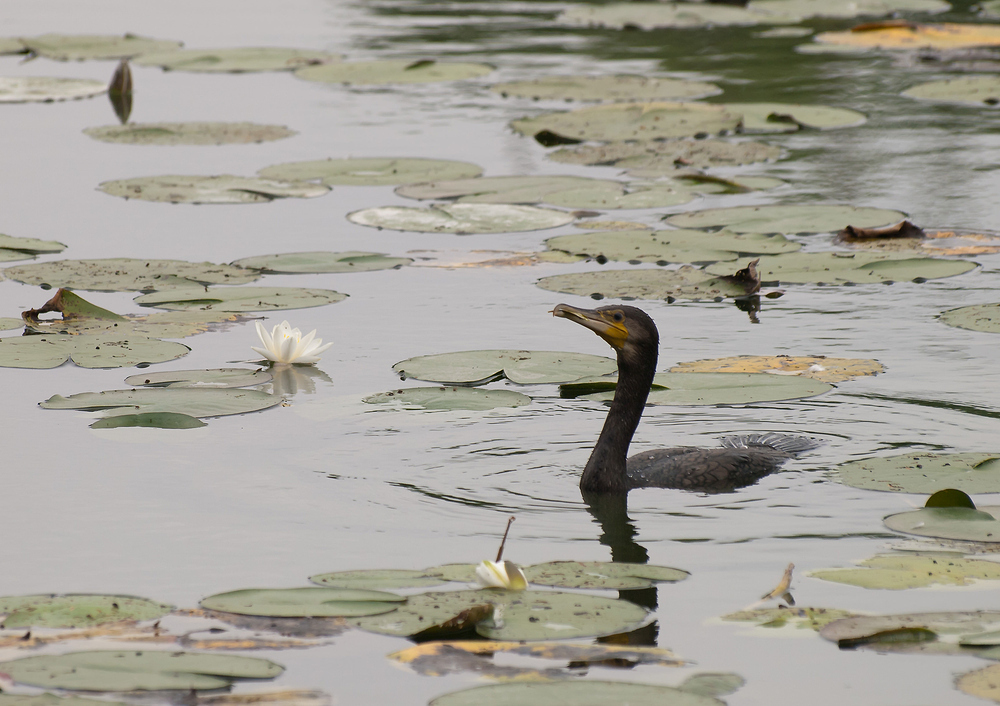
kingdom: Animalia
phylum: Chordata
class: Aves
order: Suliformes
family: Phalacrocoracidae
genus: Phalacrocorax
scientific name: Phalacrocorax carbo
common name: Great cormorant
